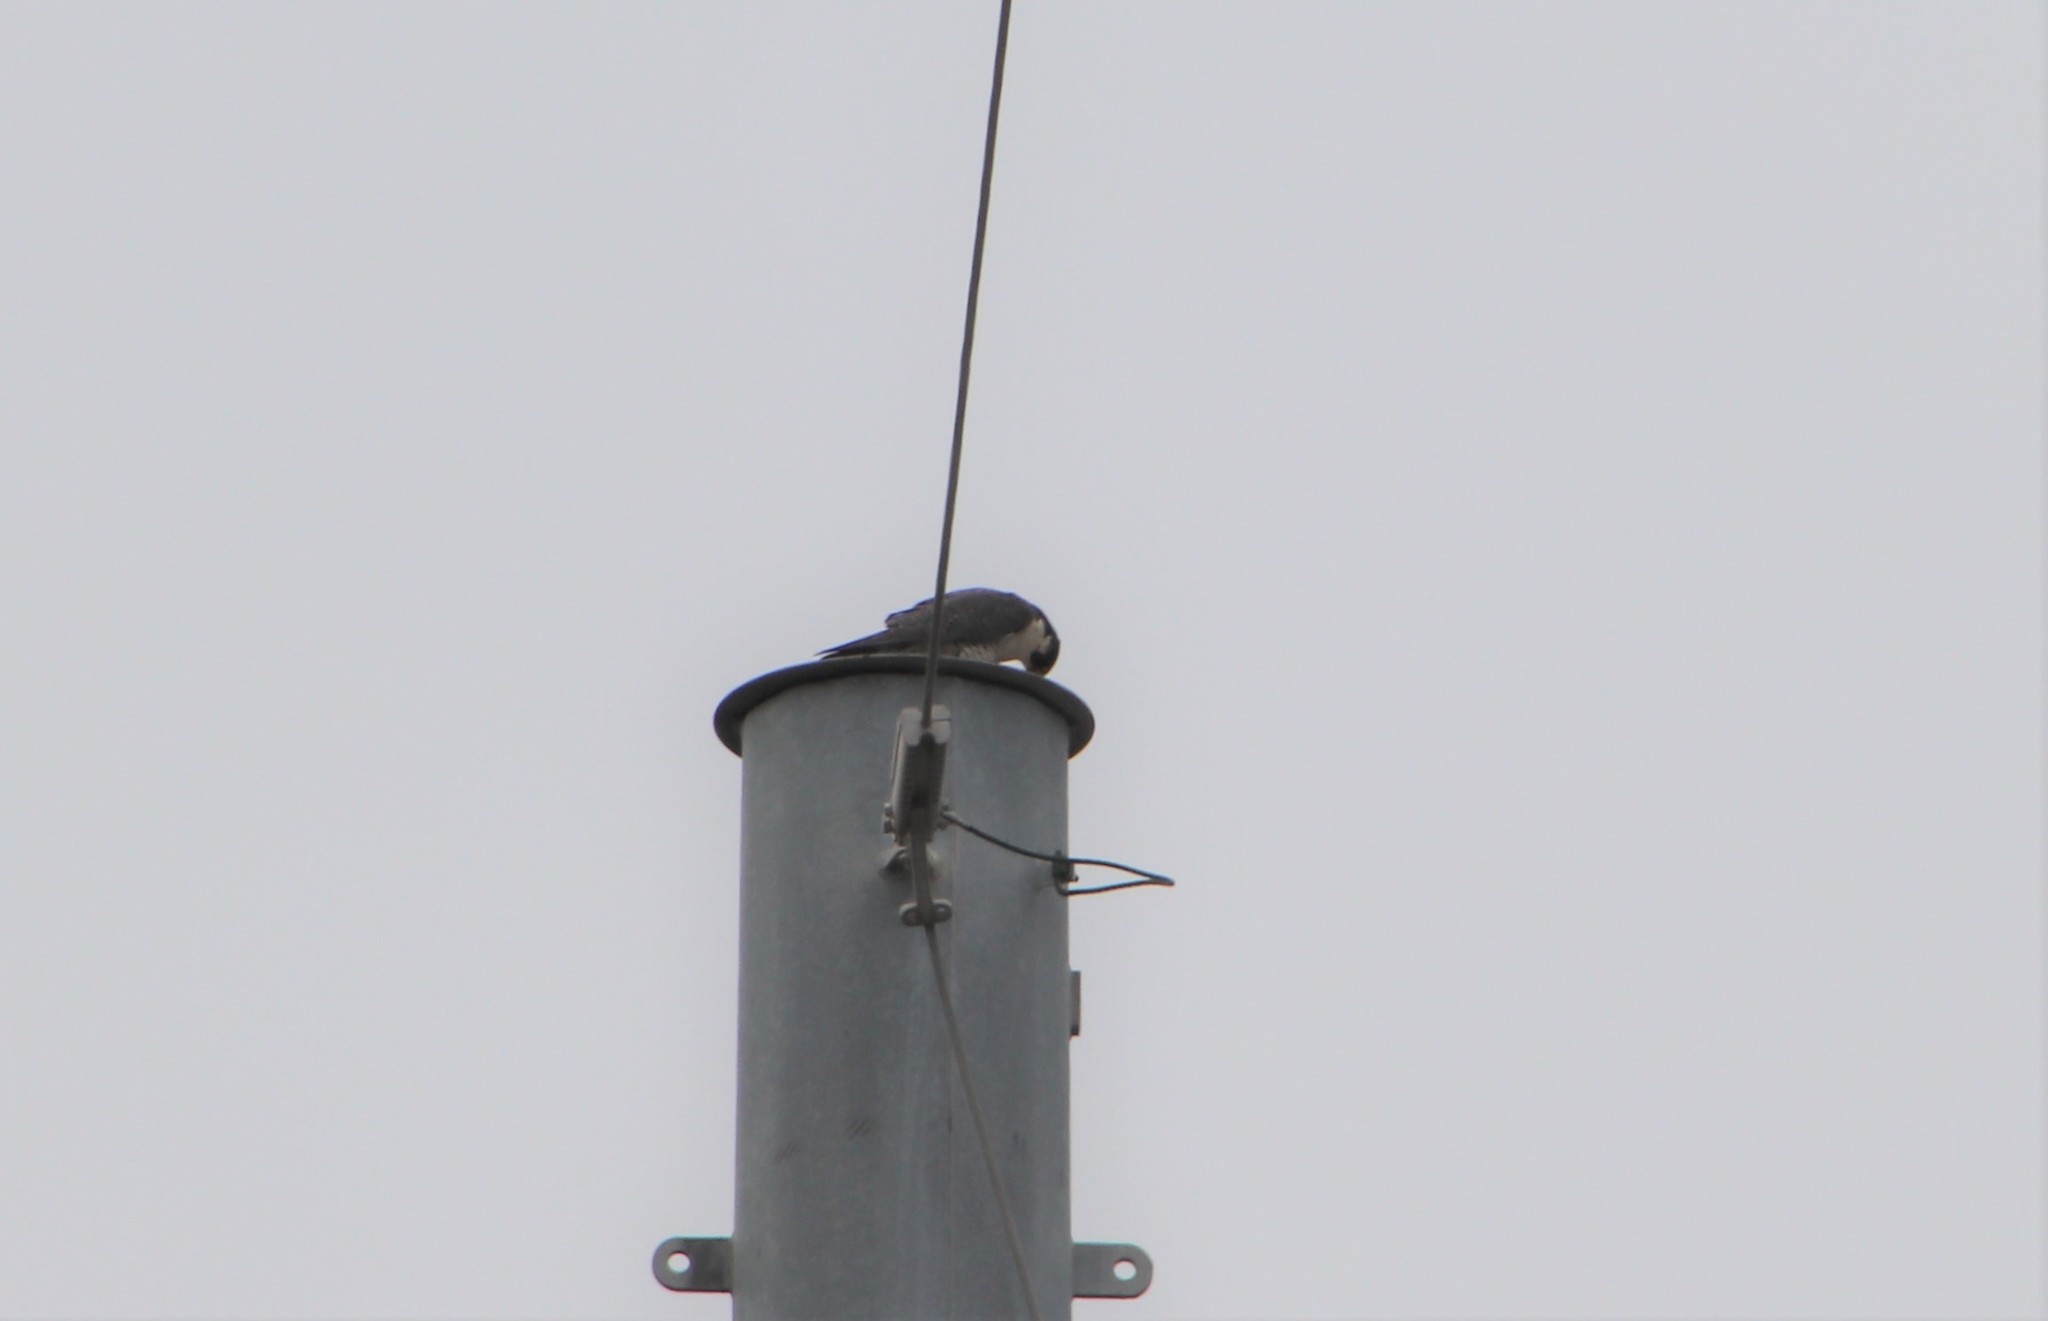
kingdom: Animalia
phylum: Chordata
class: Aves
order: Falconiformes
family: Falconidae
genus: Falco
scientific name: Falco peregrinus
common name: Peregrine falcon
